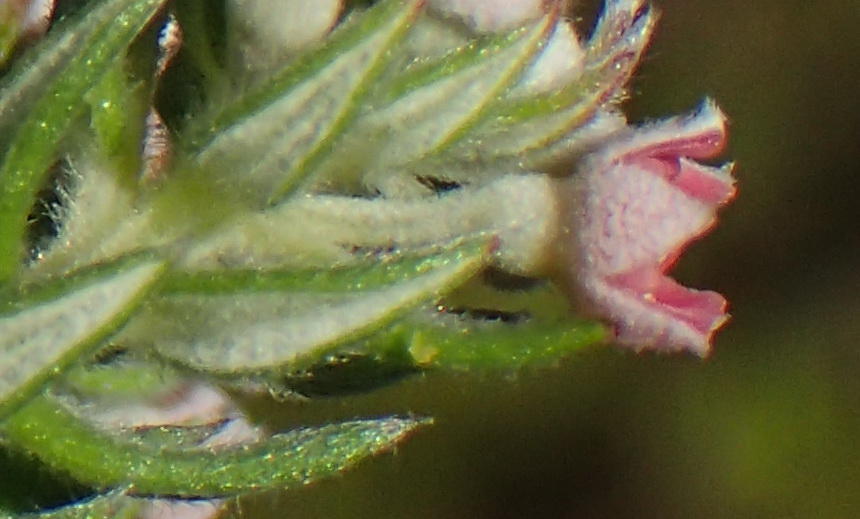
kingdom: Plantae
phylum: Tracheophyta
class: Magnoliopsida
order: Rosales
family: Rhamnaceae
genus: Phylica
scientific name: Phylica pinea
